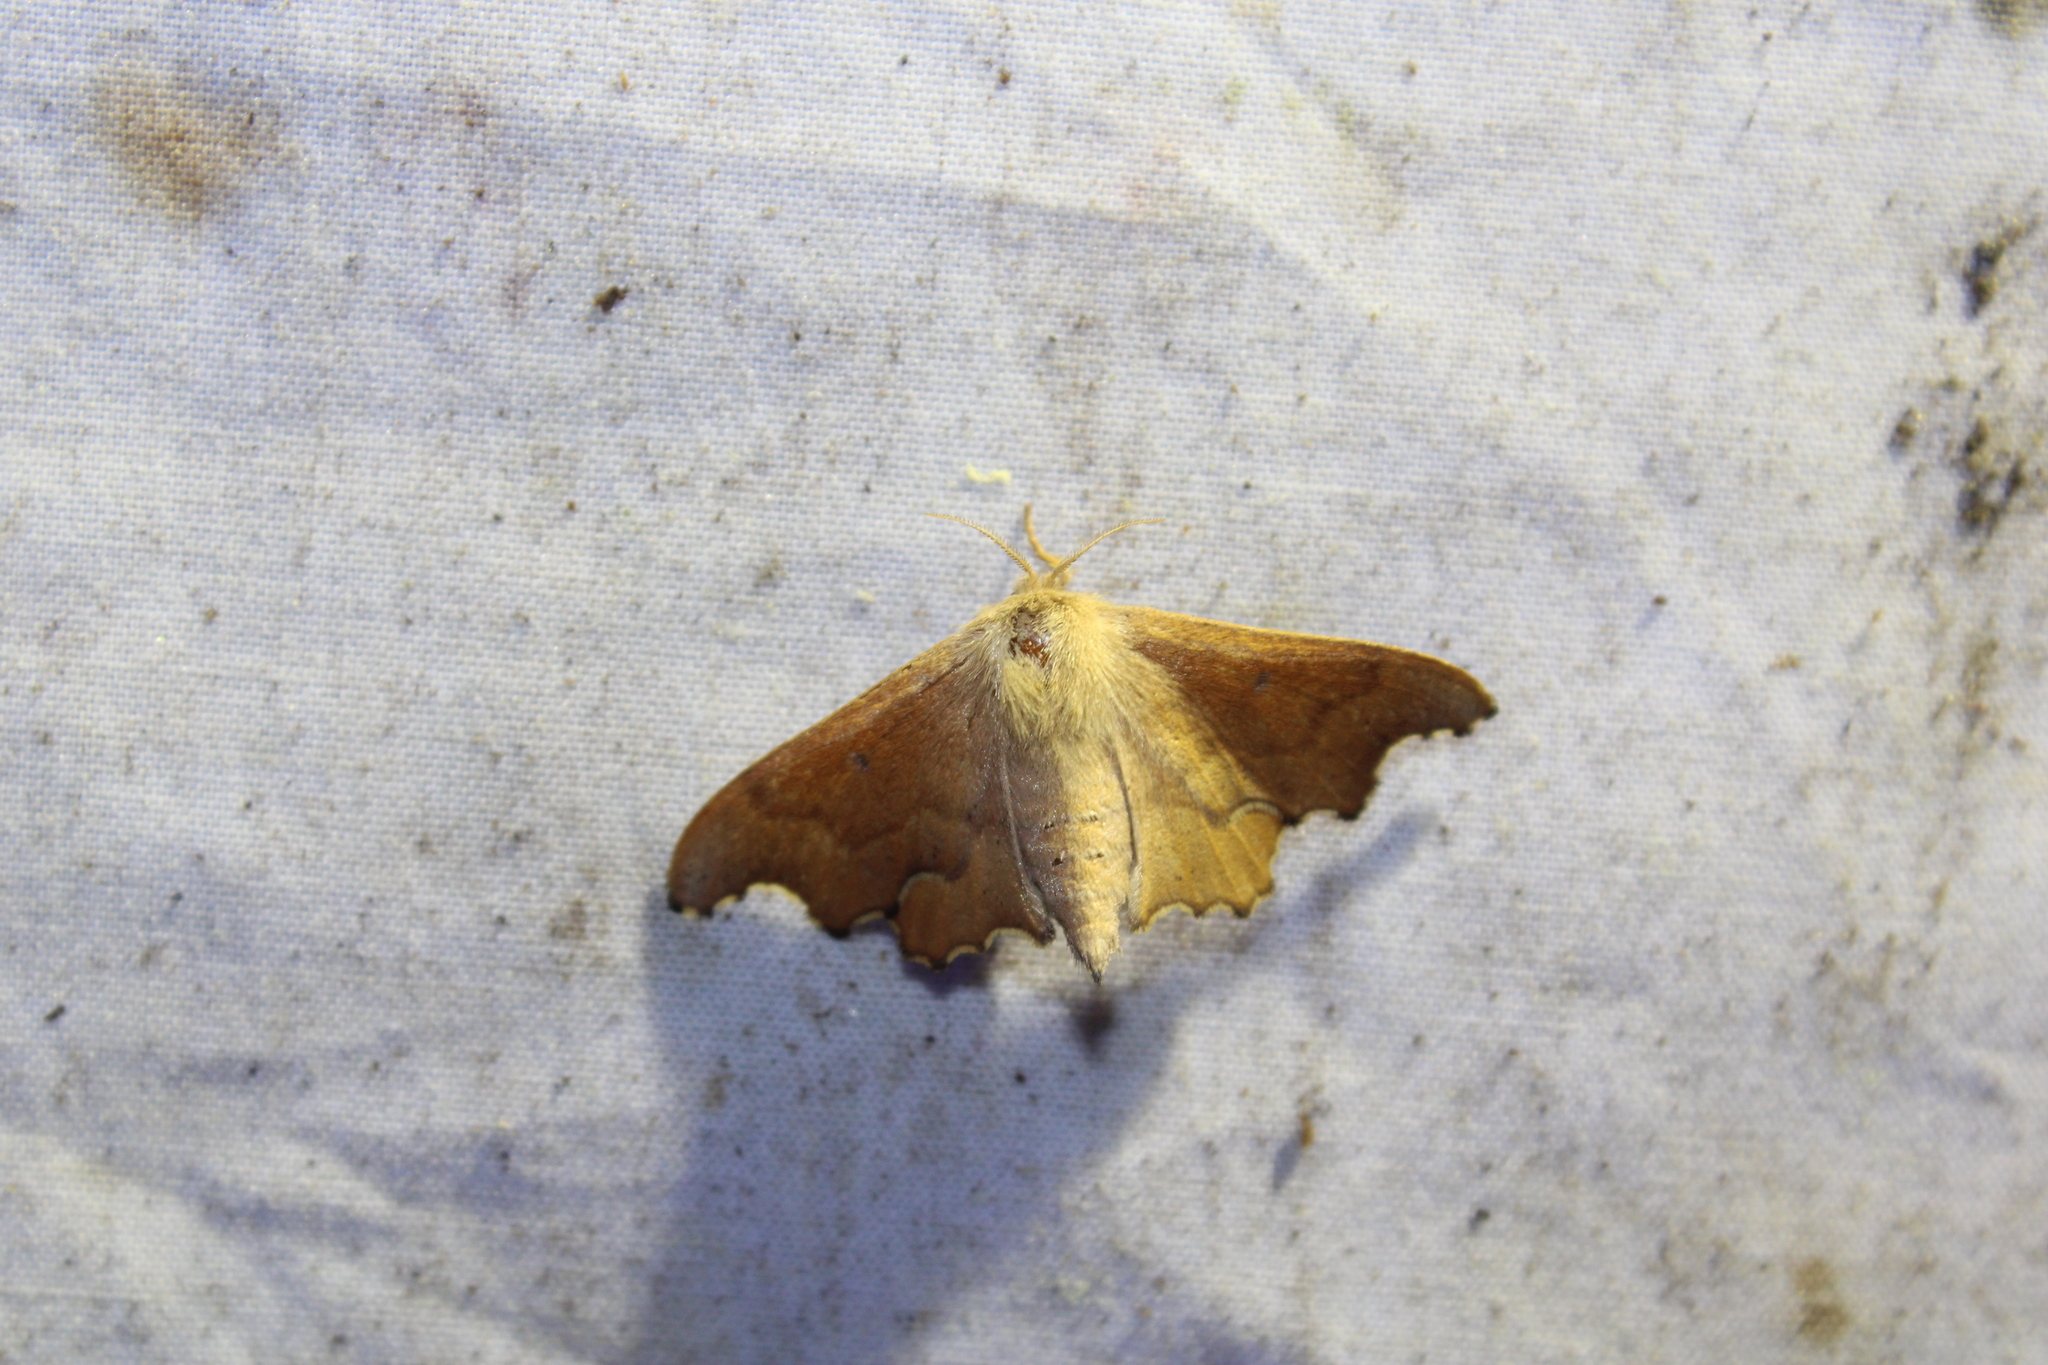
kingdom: Animalia
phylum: Arthropoda
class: Insecta
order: Lepidoptera
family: Mimallonidae
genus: Lacosoma
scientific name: Lacosoma chiridota
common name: Scalloped sack-bearer moth
